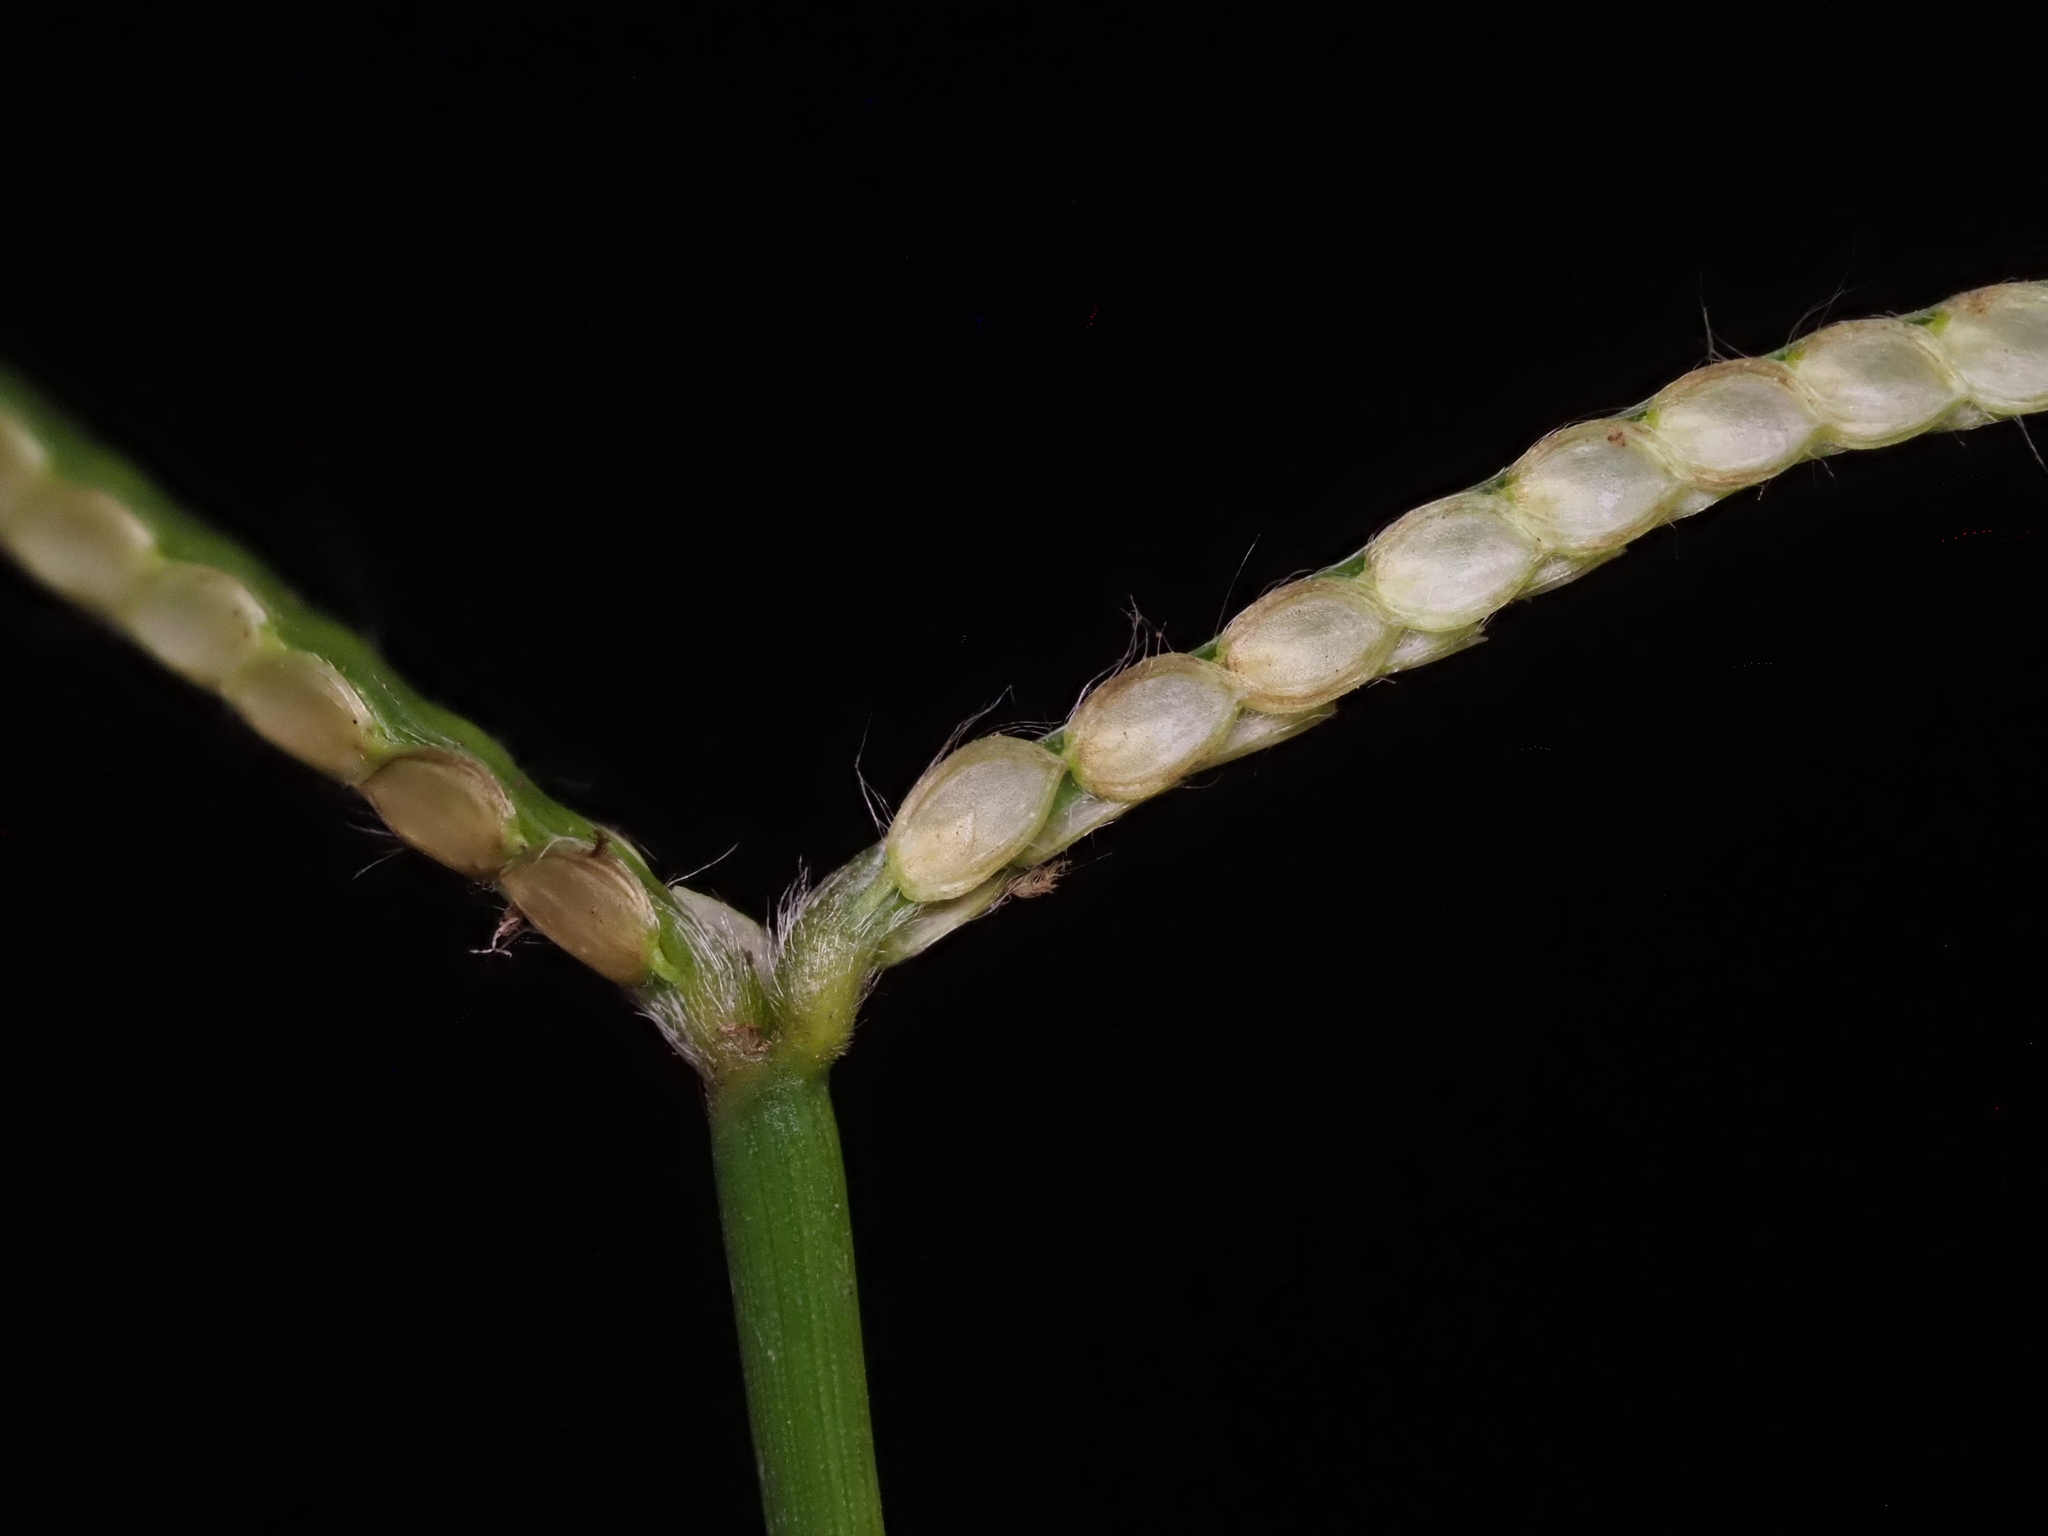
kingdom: Plantae
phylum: Tracheophyta
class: Liliopsida
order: Poales
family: Poaceae
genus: Paspalum
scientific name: Paspalum conjugatum
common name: Hilograss
